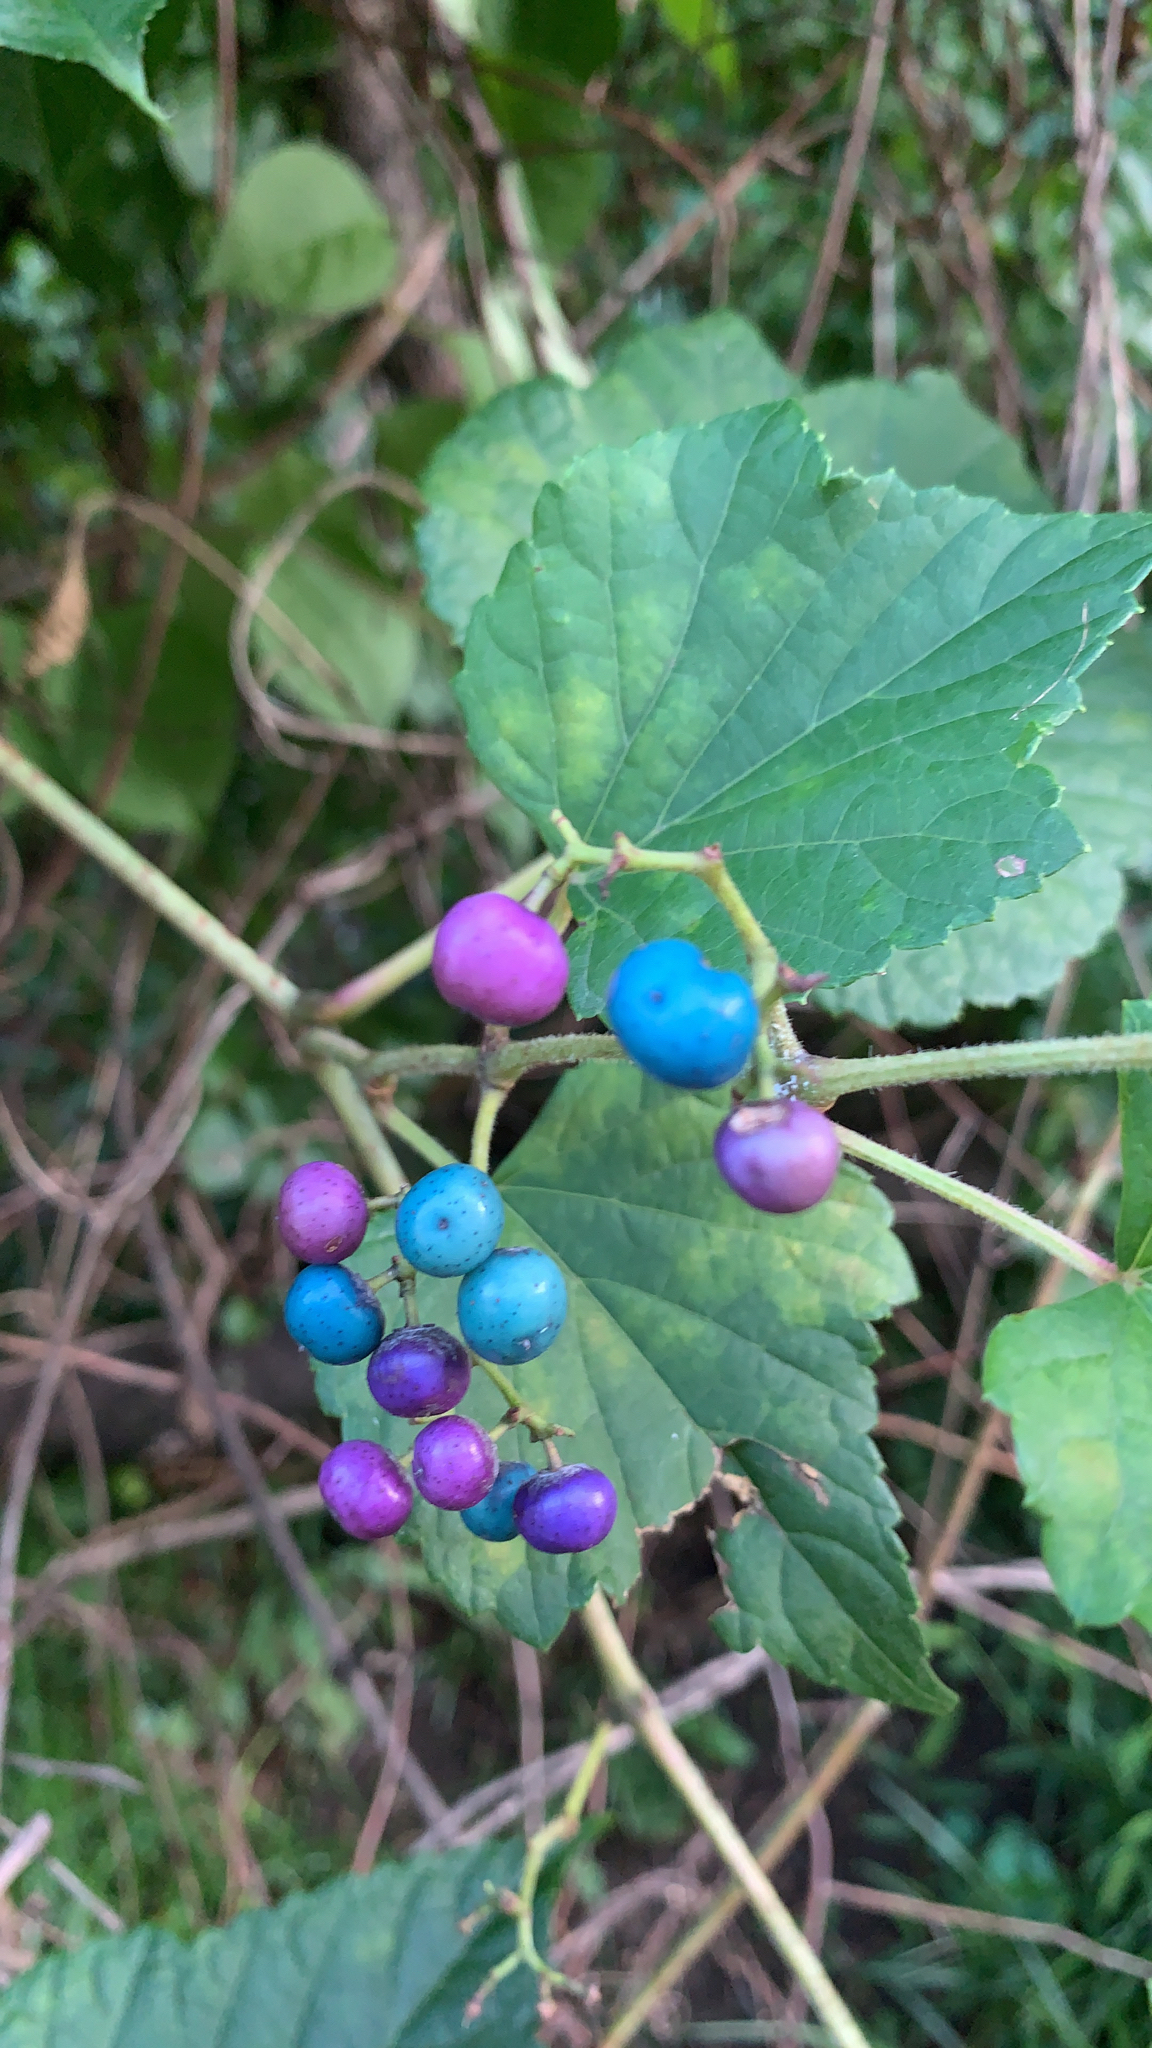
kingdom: Plantae
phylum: Tracheophyta
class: Magnoliopsida
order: Vitales
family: Vitaceae
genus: Ampelopsis
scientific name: Ampelopsis glandulosa
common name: Amur peppervine
